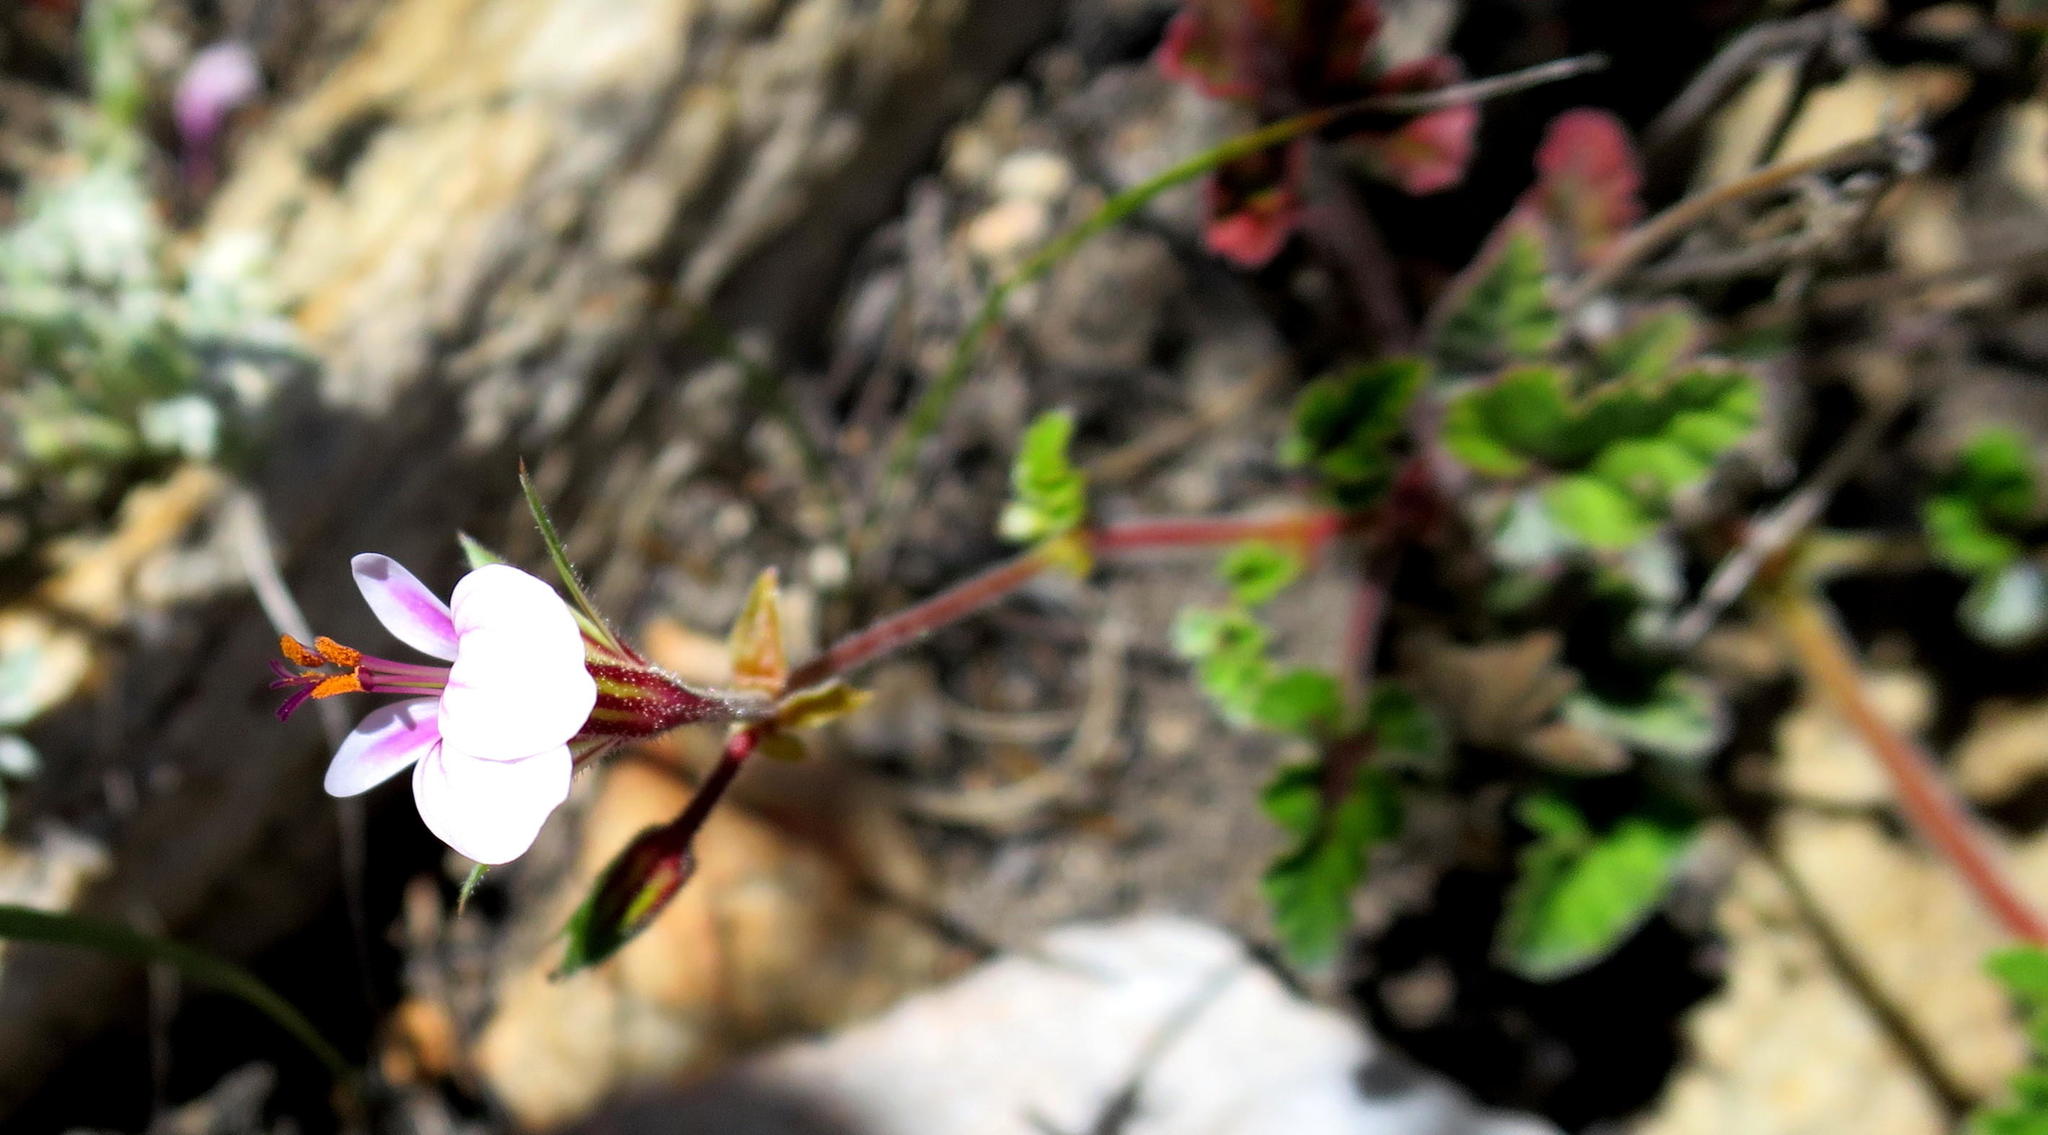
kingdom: Plantae
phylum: Tracheophyta
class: Magnoliopsida
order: Geraniales
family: Geraniaceae
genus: Pelargonium
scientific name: Pelargonium candicans
